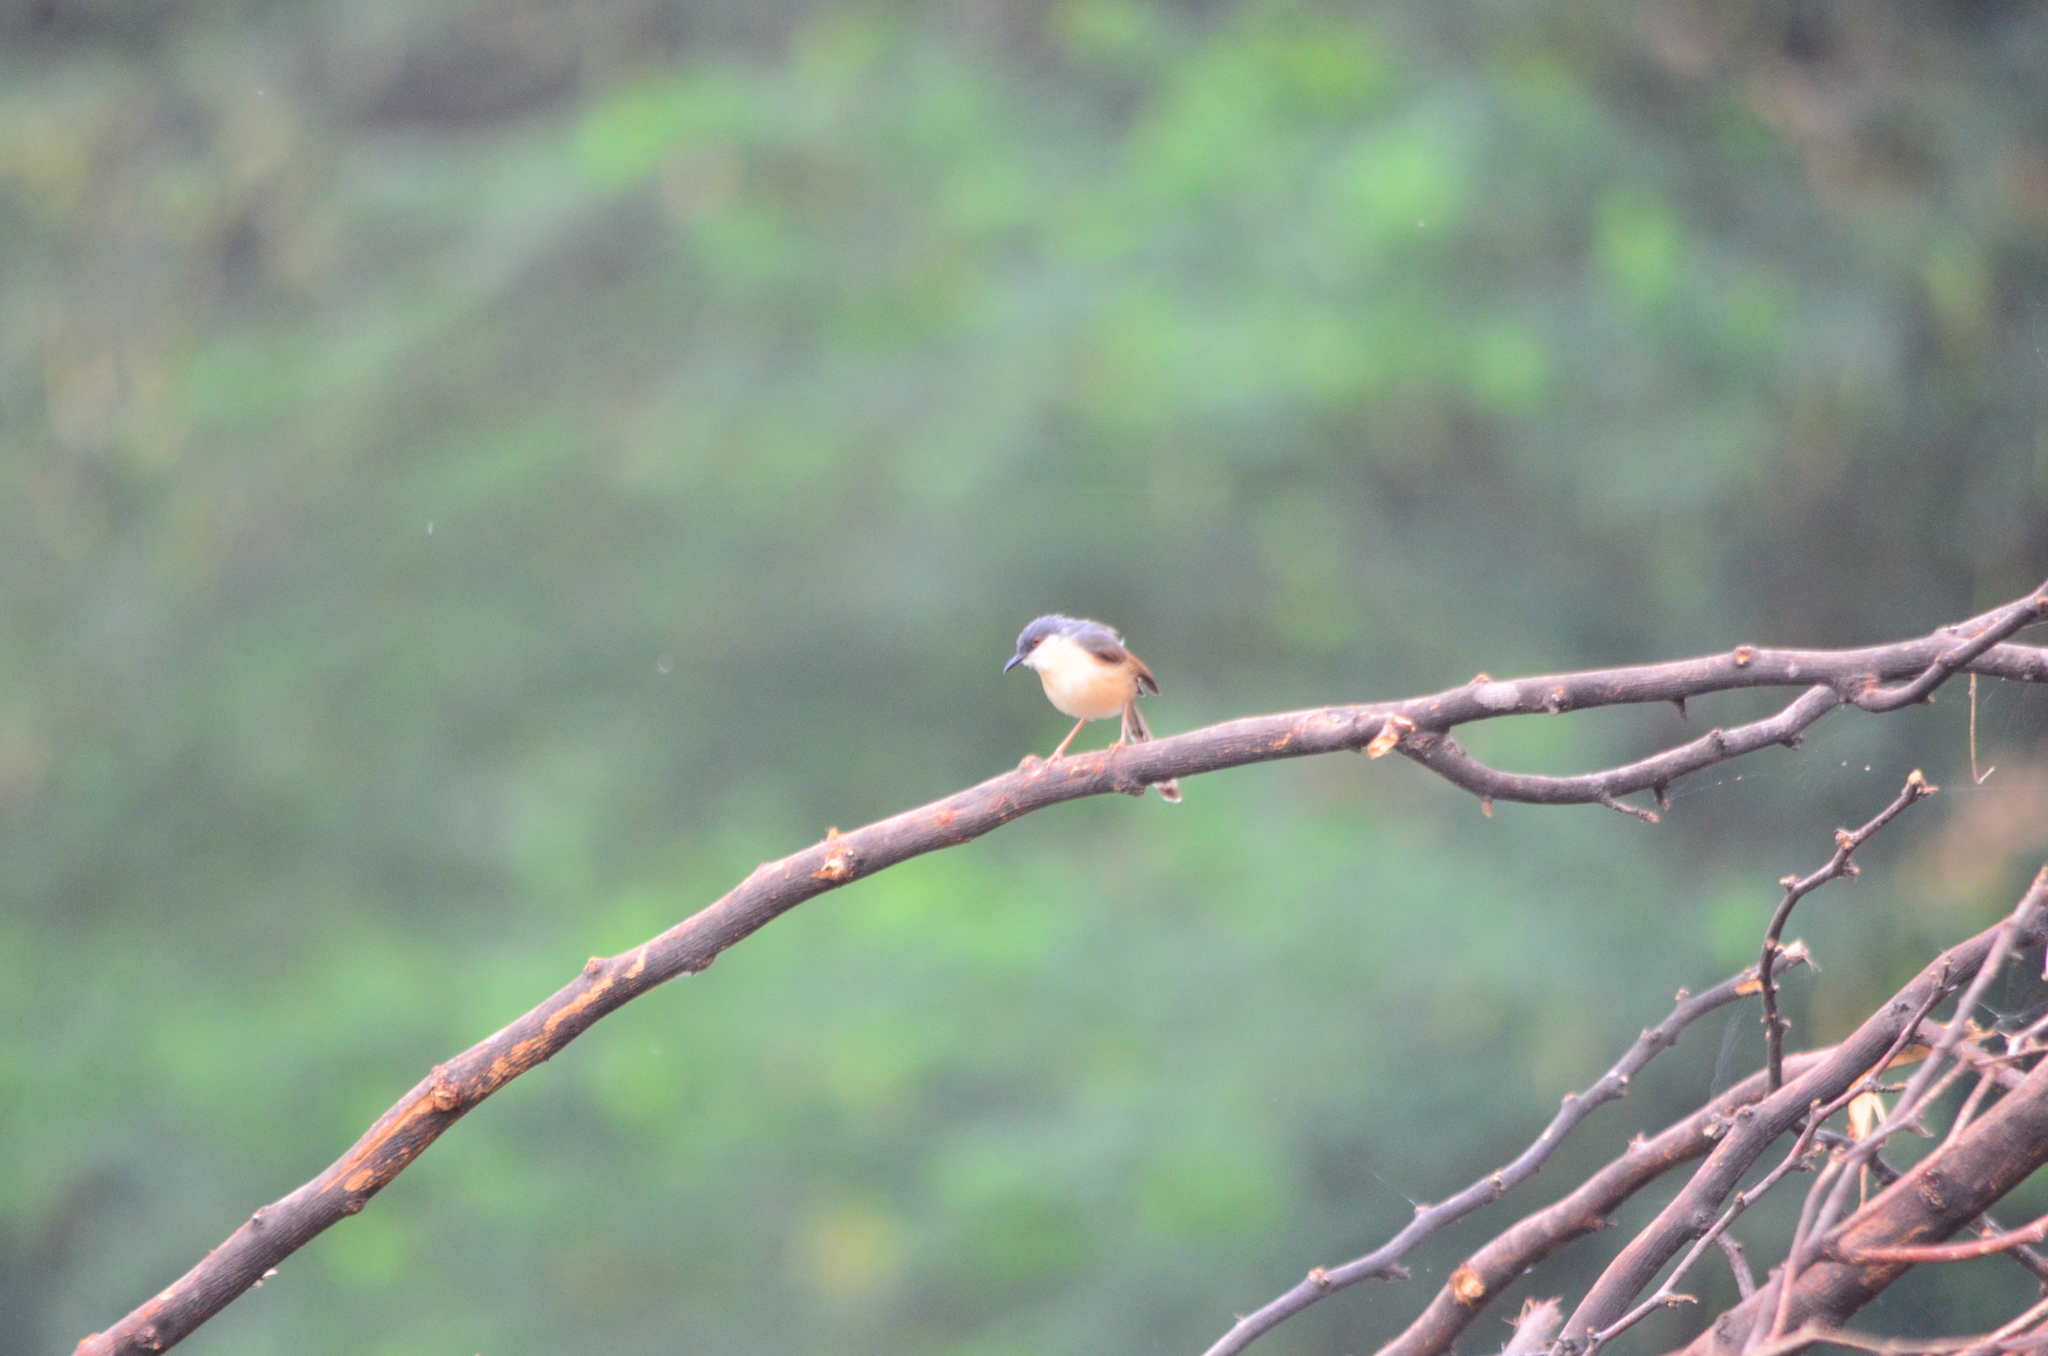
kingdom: Animalia
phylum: Chordata
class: Aves
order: Passeriformes
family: Cisticolidae
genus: Prinia
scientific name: Prinia socialis
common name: Ashy prinia
